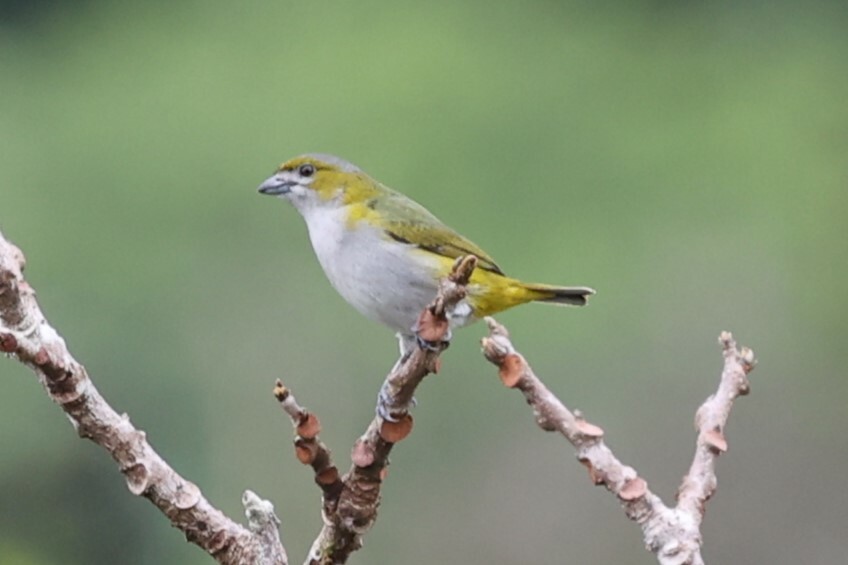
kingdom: Animalia
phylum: Chordata
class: Aves
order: Passeriformes
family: Fringillidae
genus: Euphonia
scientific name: Euphonia chrysopasta
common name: White-lored euphonia
